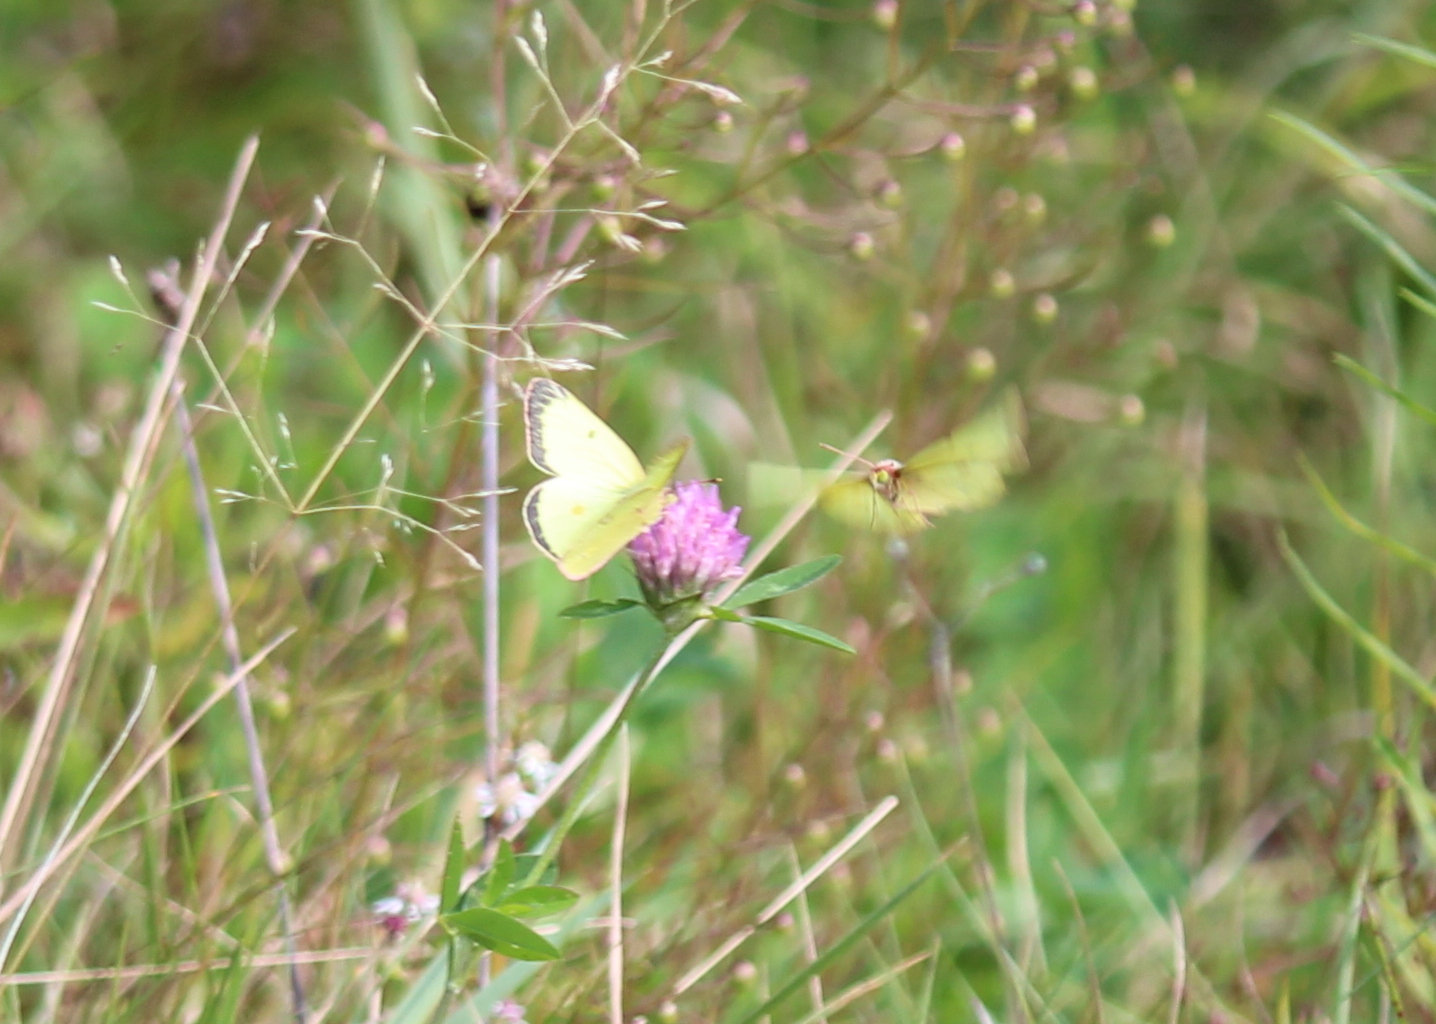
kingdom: Animalia
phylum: Arthropoda
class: Insecta
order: Lepidoptera
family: Pieridae
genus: Colias
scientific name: Colias philodice
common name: Clouded sulphur
